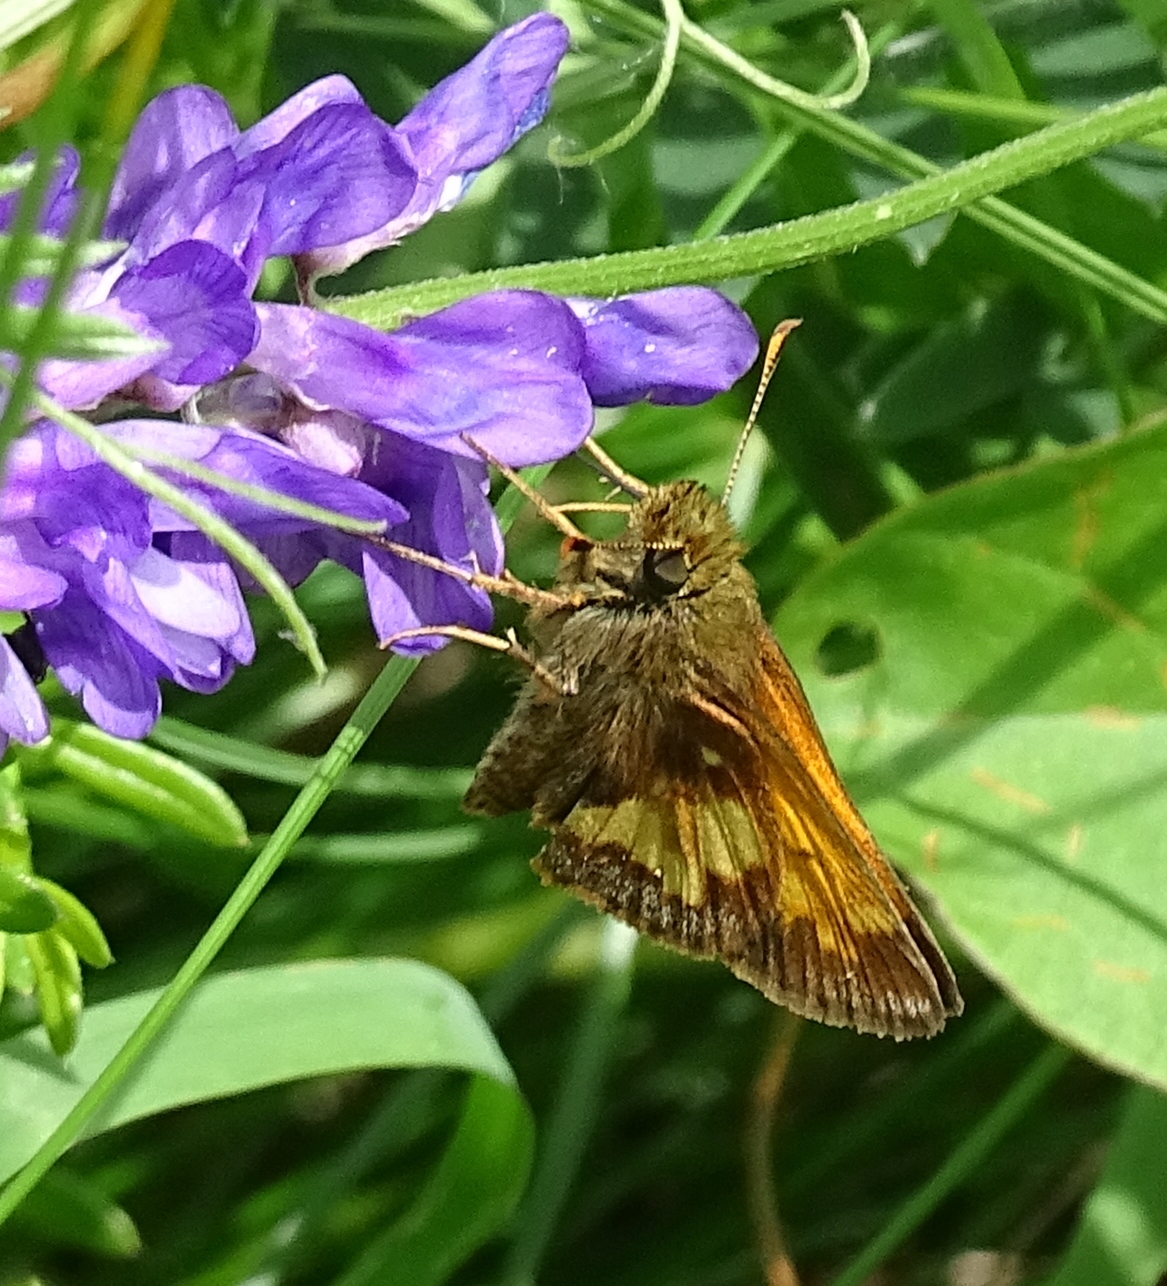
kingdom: Animalia
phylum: Arthropoda
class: Insecta
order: Lepidoptera
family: Hesperiidae
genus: Lon
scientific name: Lon hobomok
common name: Hobomok skipper
